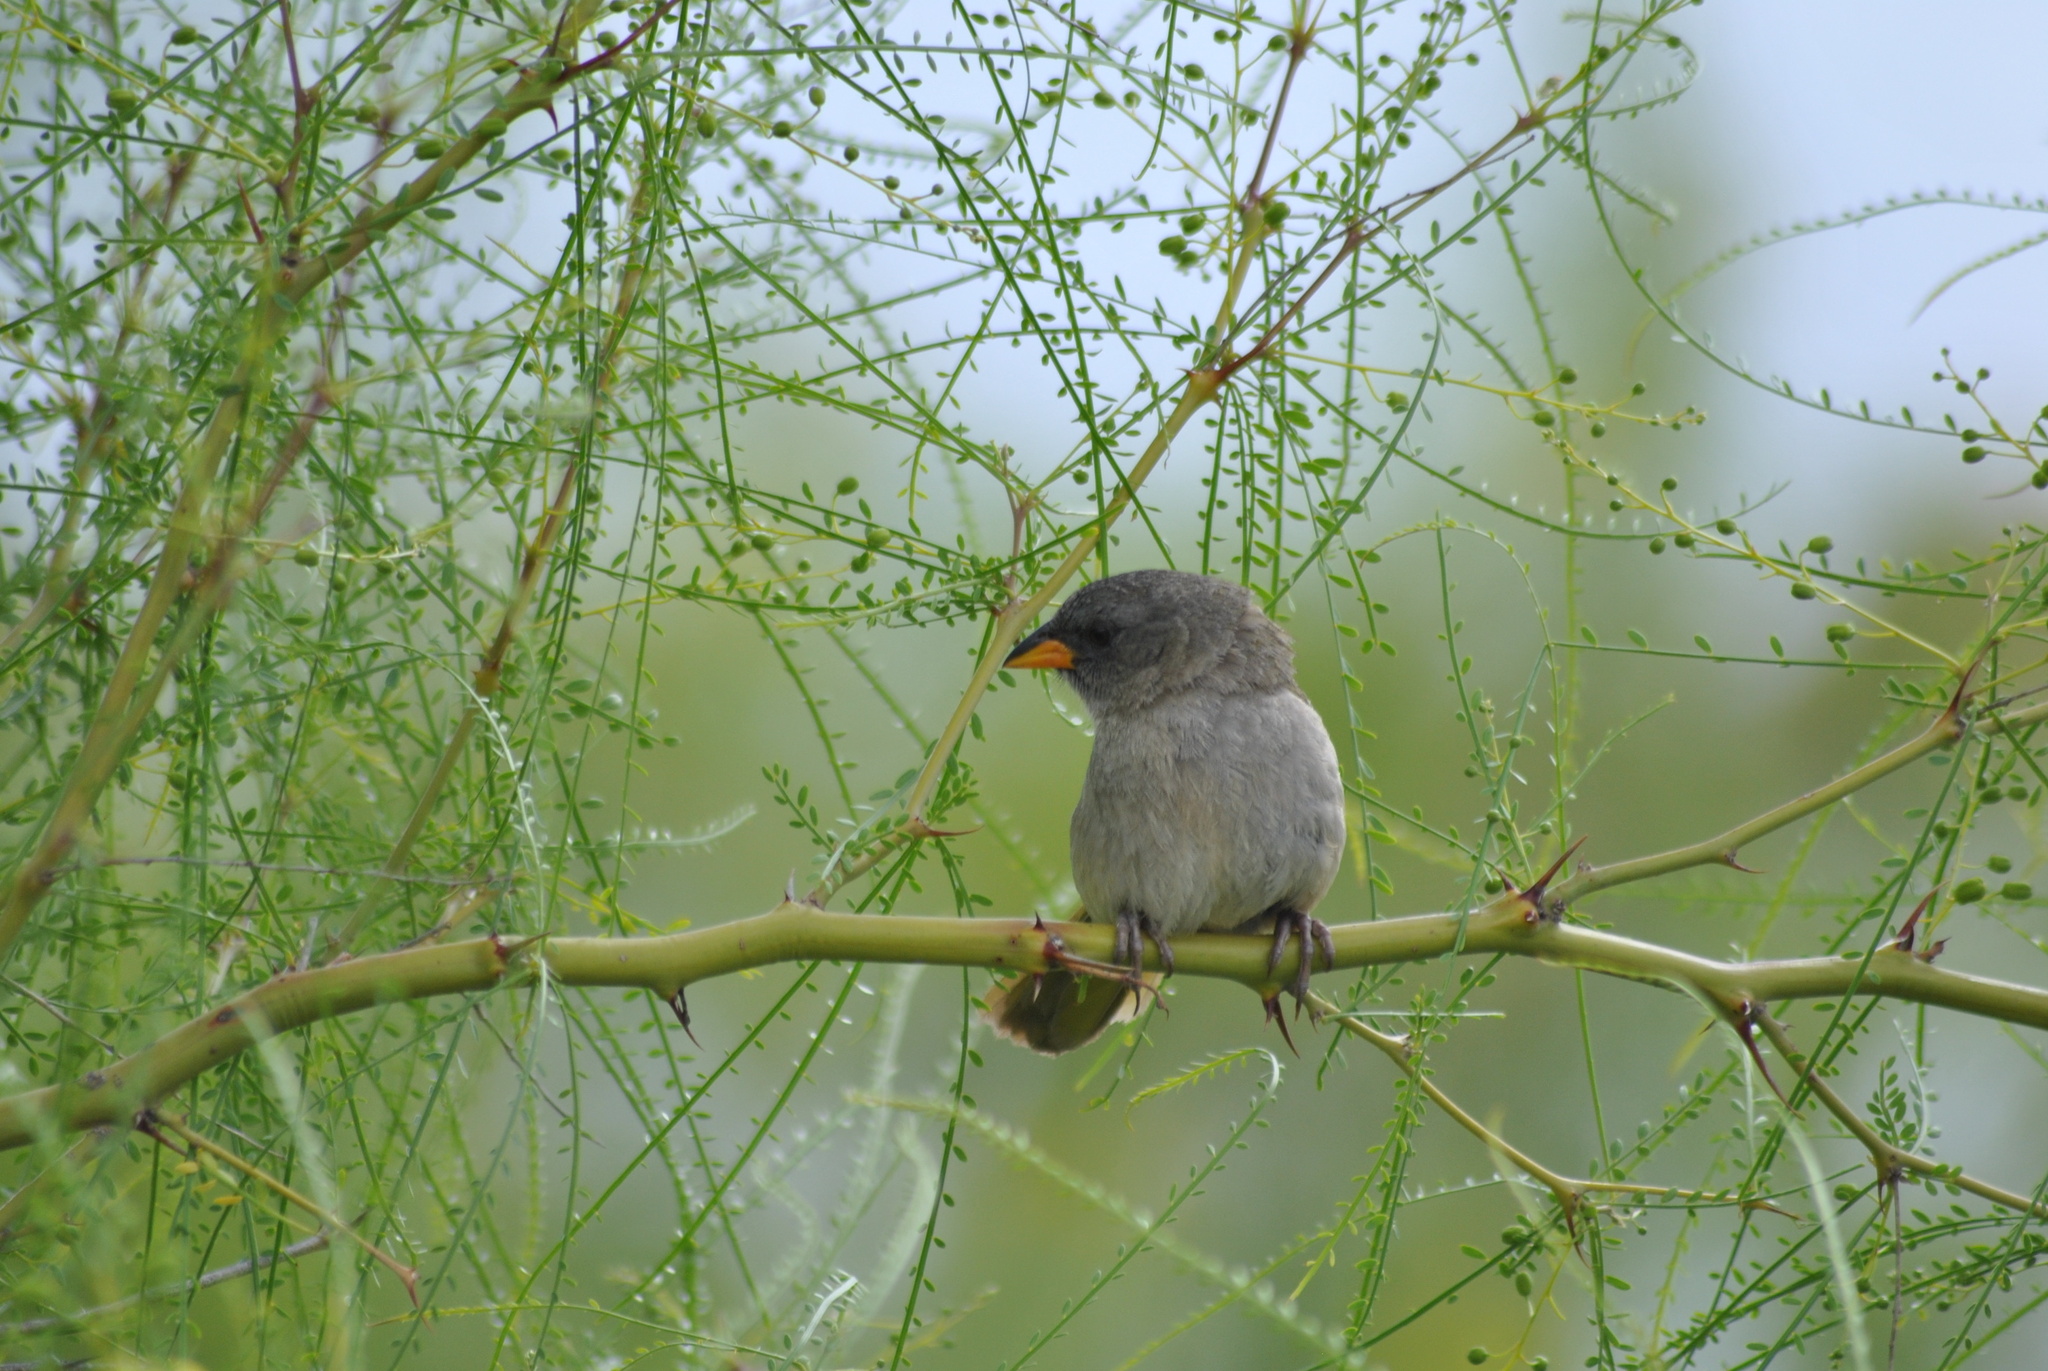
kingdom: Animalia
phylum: Chordata
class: Aves
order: Passeriformes
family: Thraupidae
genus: Embernagra
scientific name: Embernagra platensis
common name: Pampa finch
